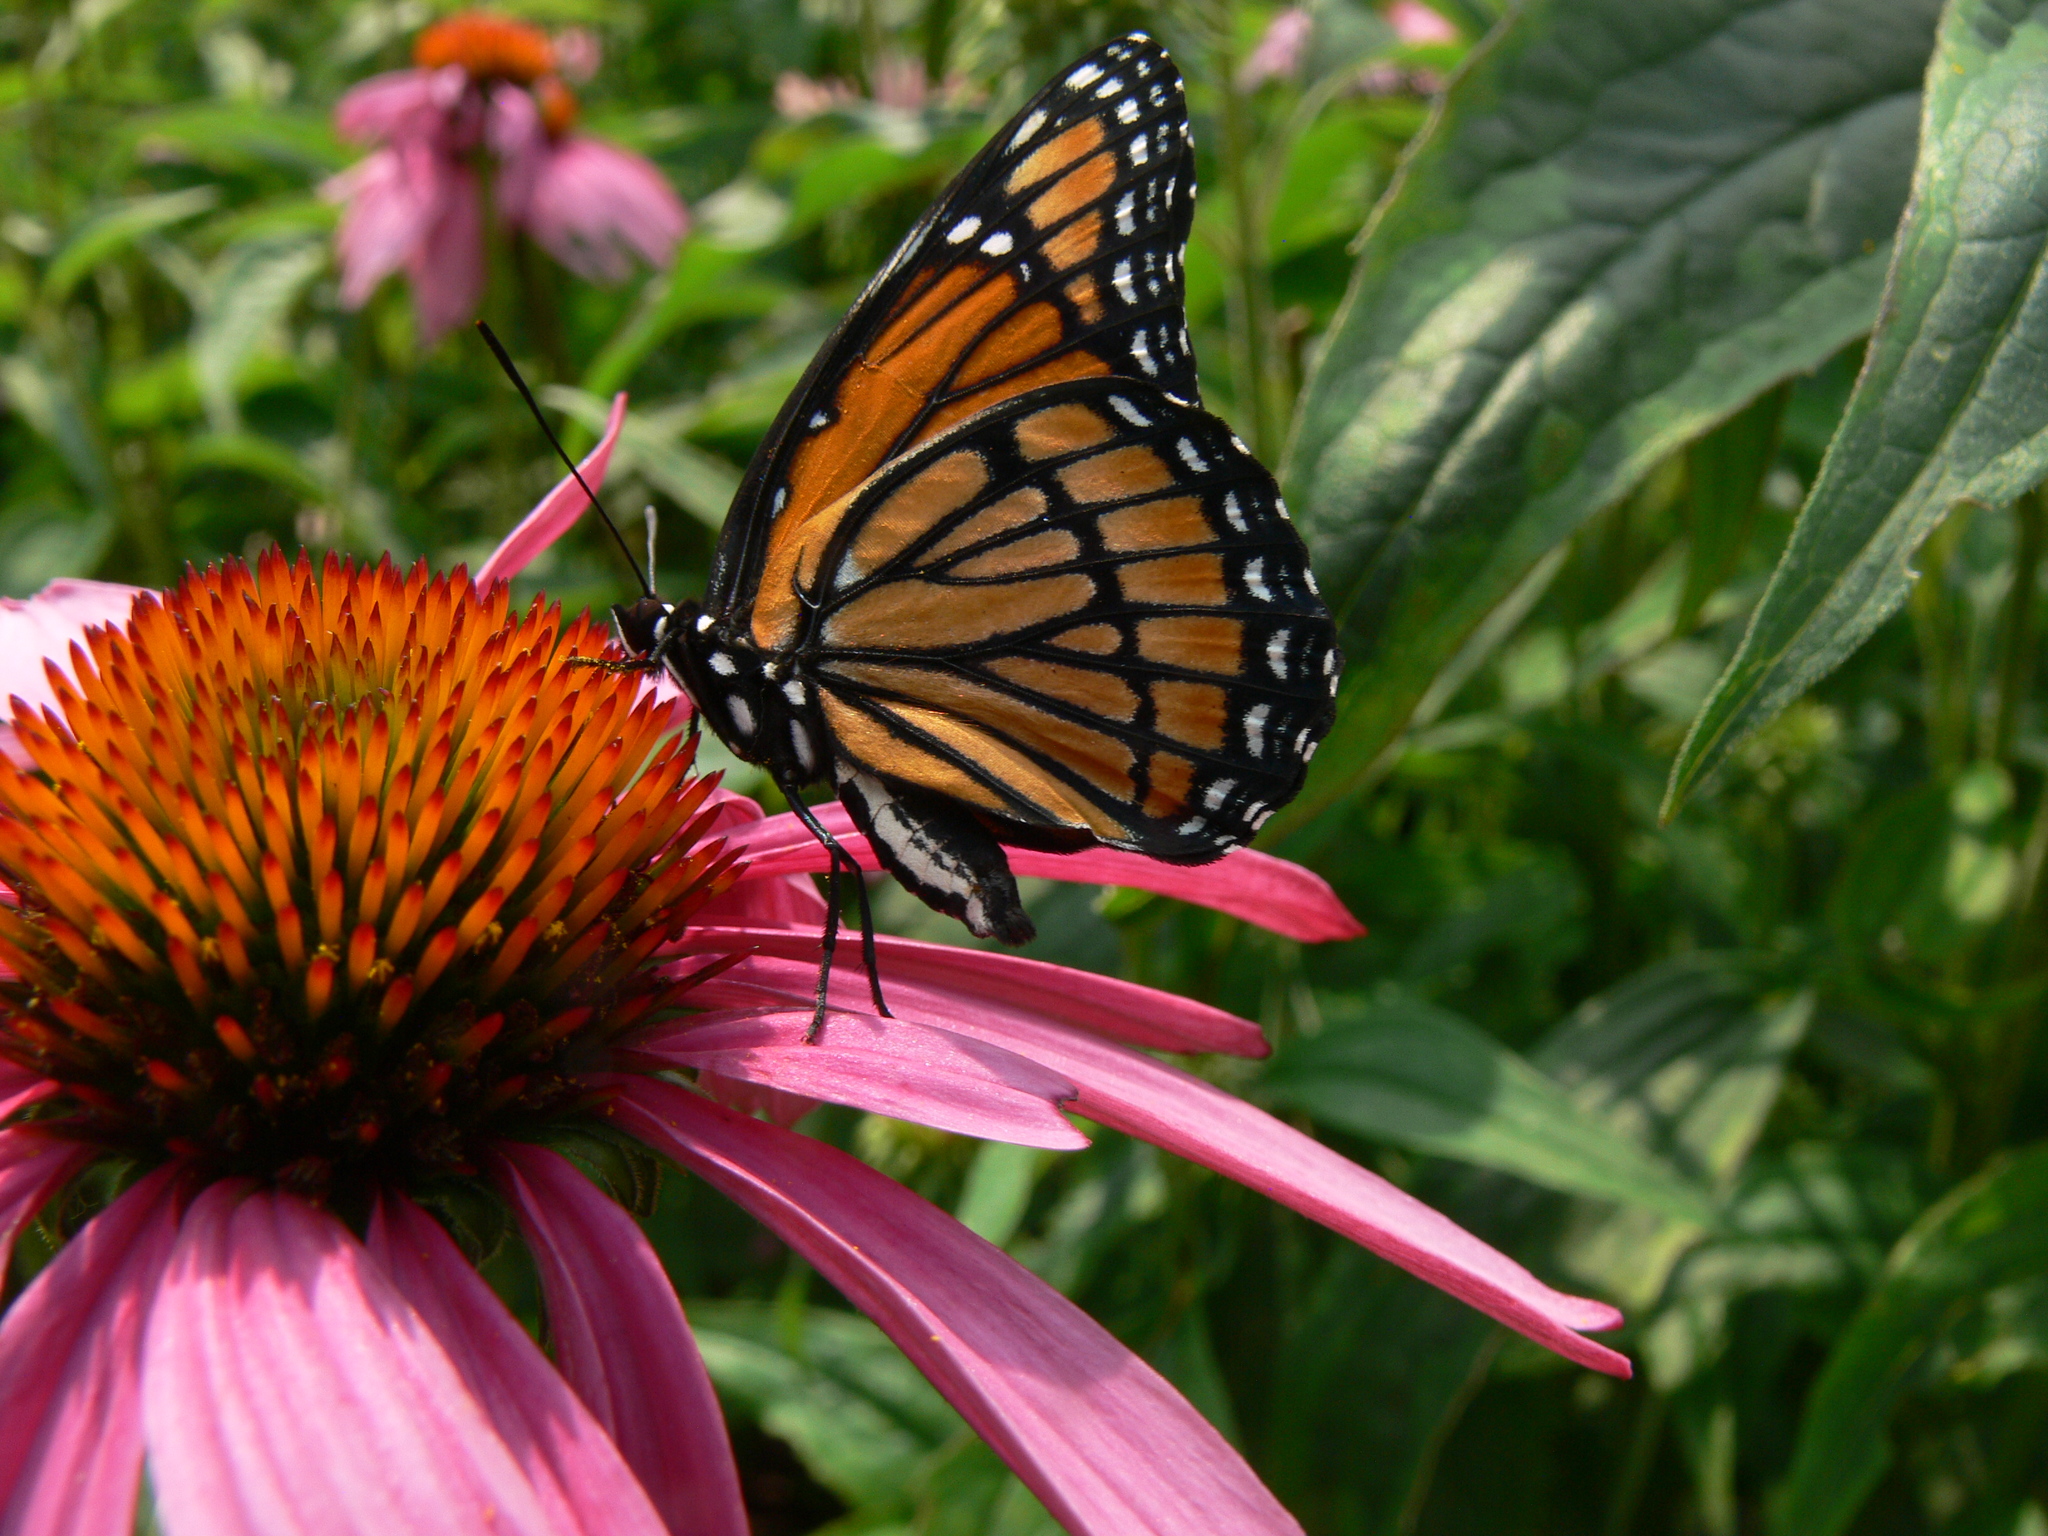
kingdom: Animalia
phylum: Arthropoda
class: Insecta
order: Lepidoptera
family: Nymphalidae
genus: Limenitis
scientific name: Limenitis archippus
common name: Viceroy
